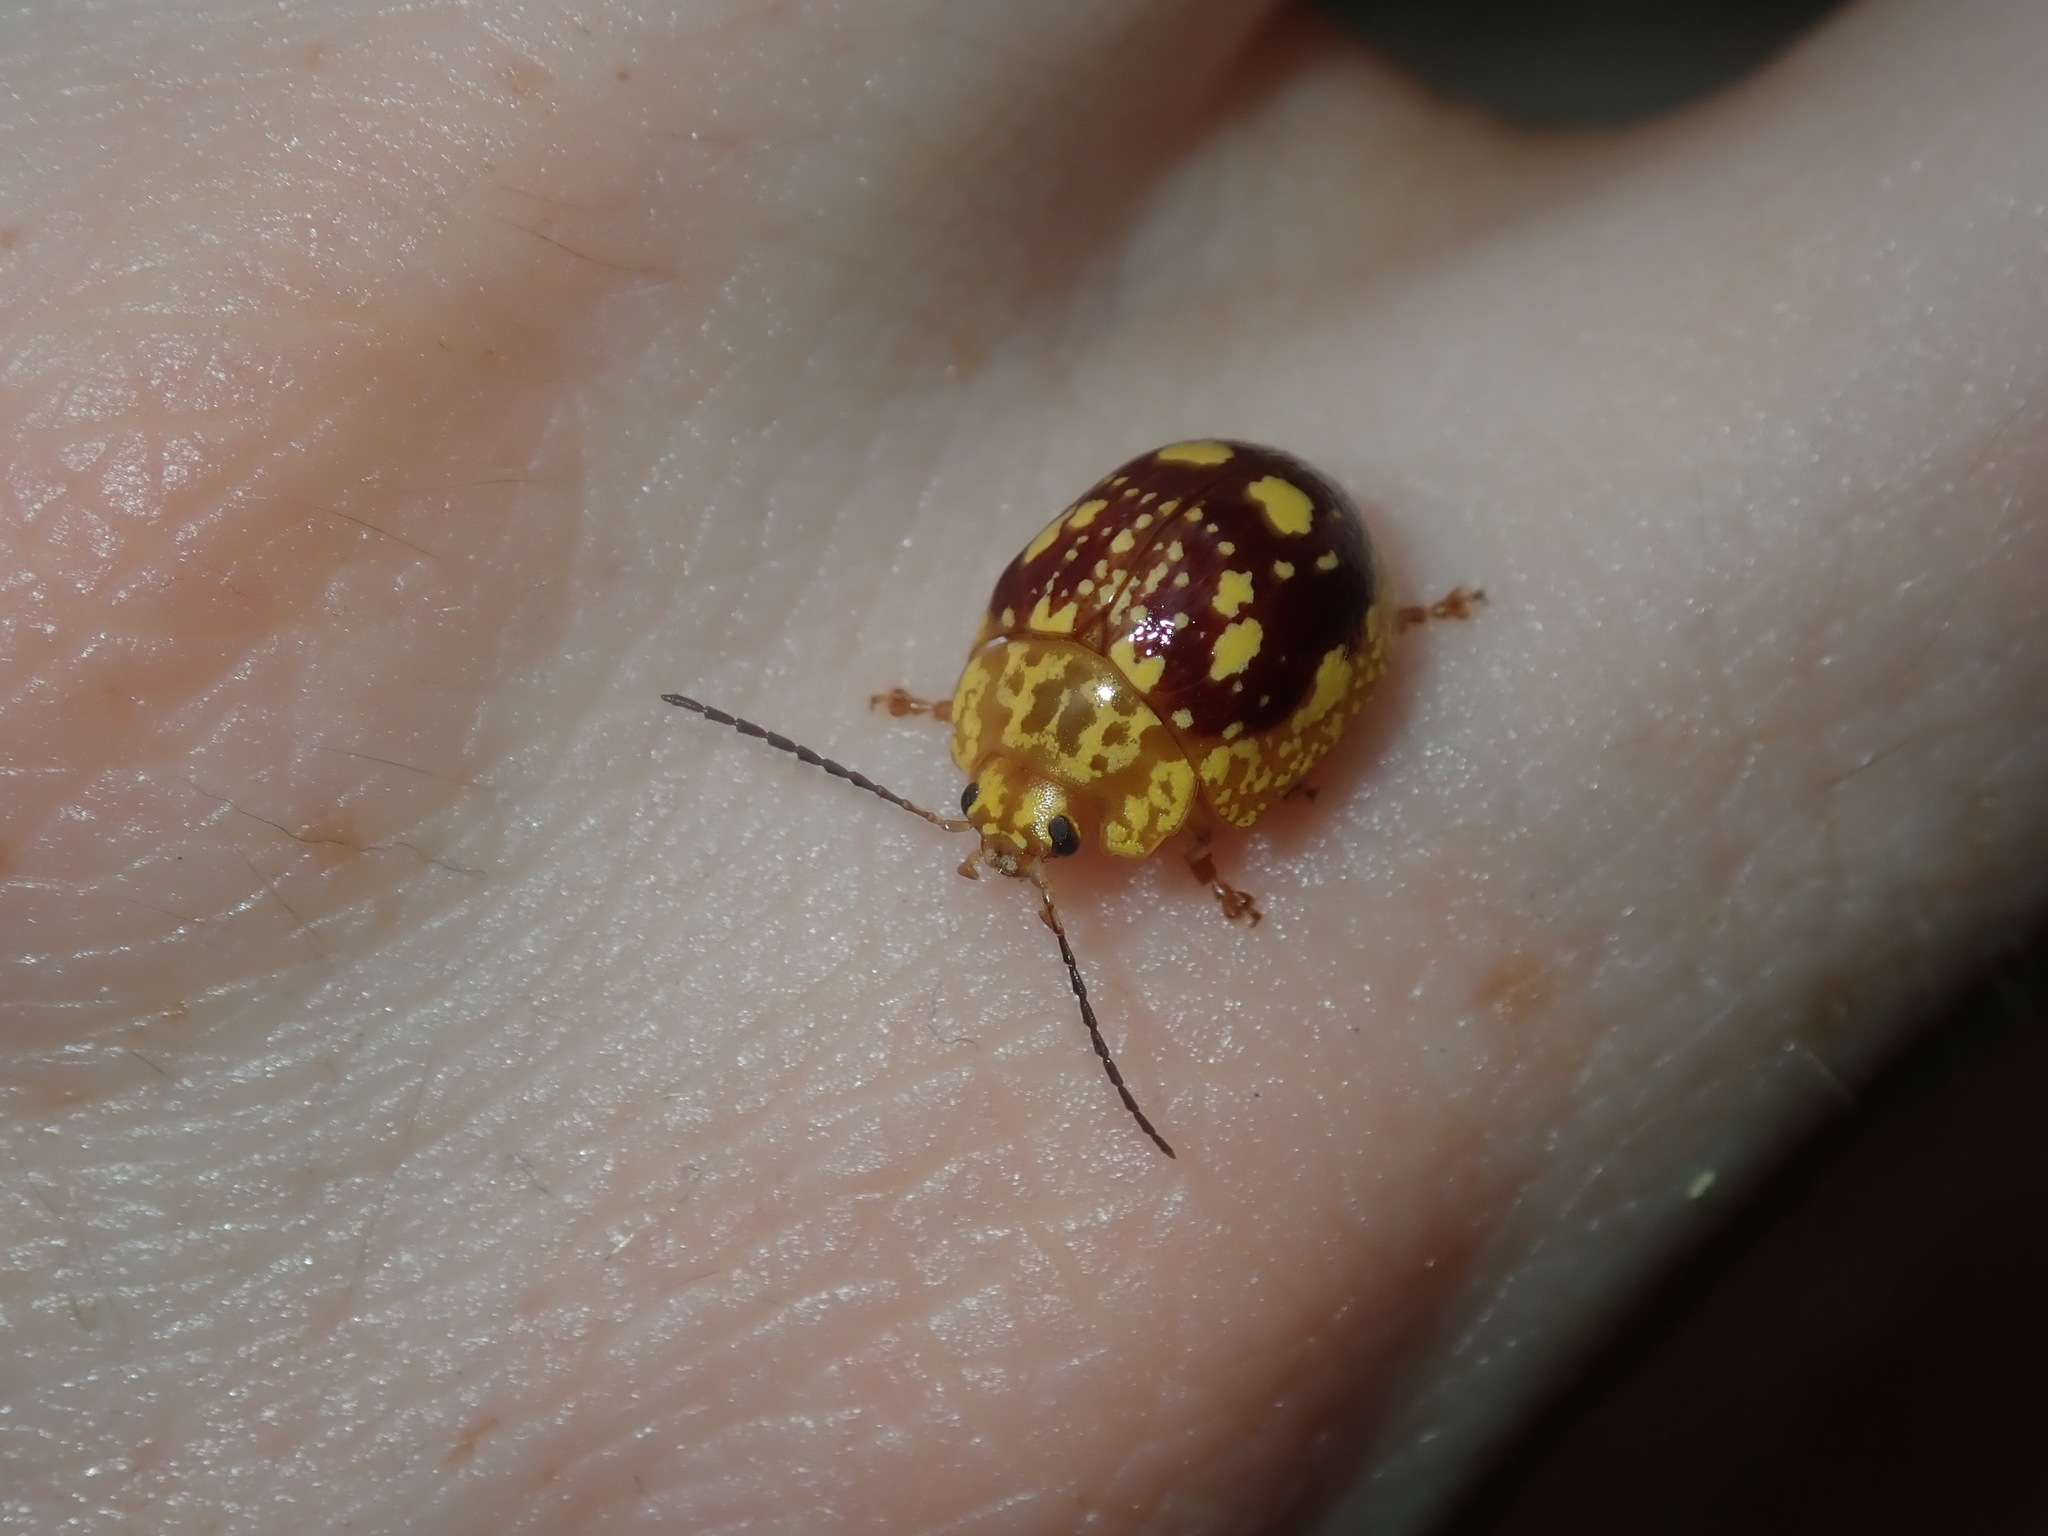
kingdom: Animalia
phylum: Arthropoda
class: Insecta
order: Coleoptera
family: Chrysomelidae
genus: Paropsis
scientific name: Paropsis maculata
